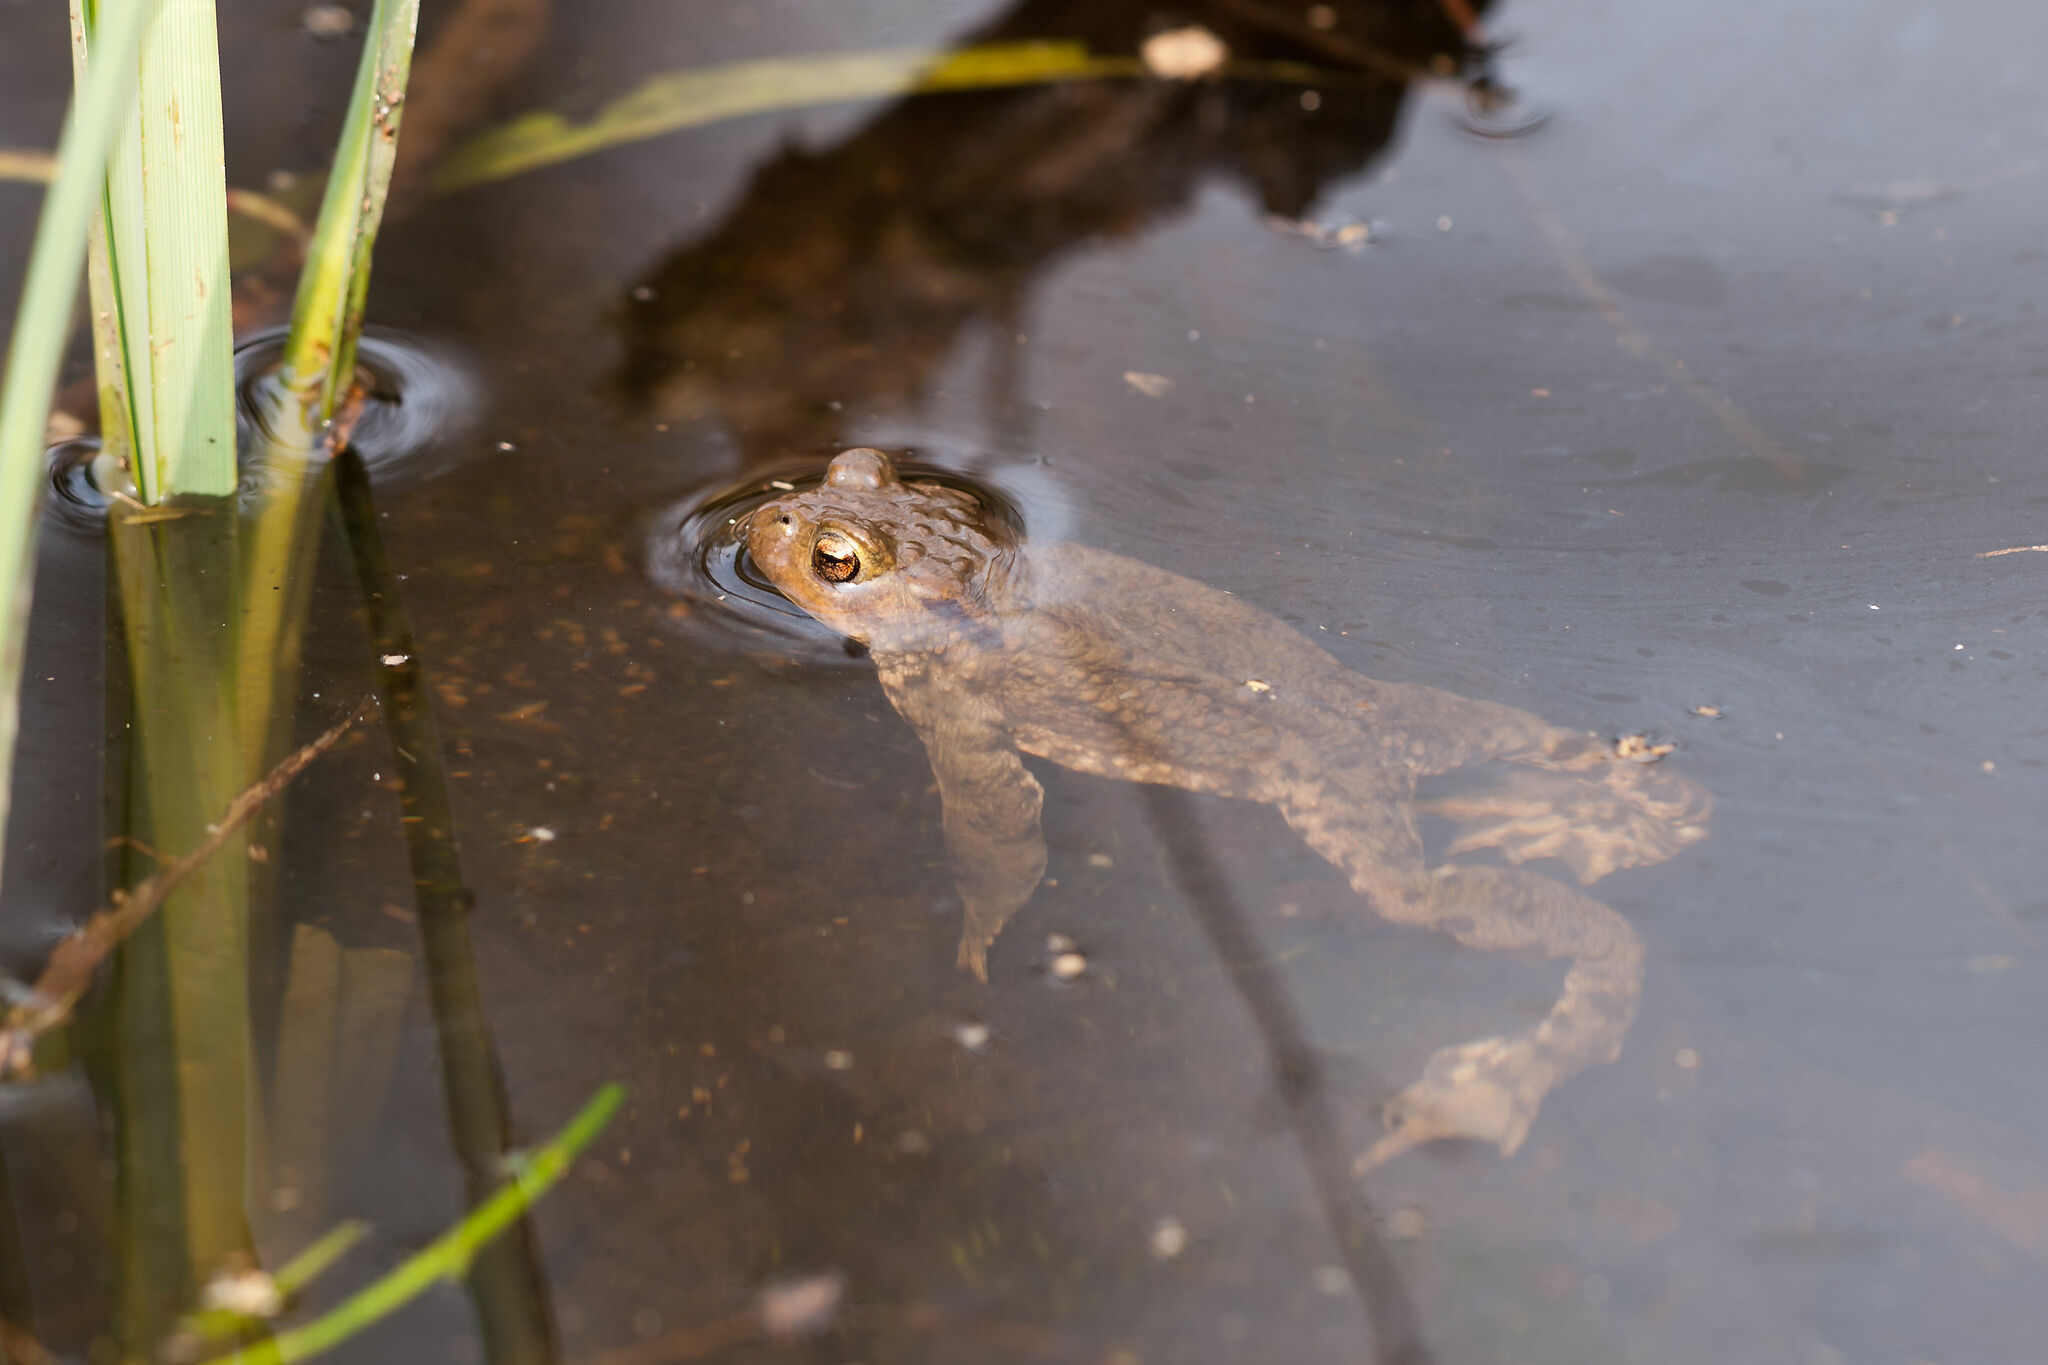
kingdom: Animalia
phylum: Chordata
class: Amphibia
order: Anura
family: Bufonidae
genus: Bufo
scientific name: Bufo bufo
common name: Common toad
